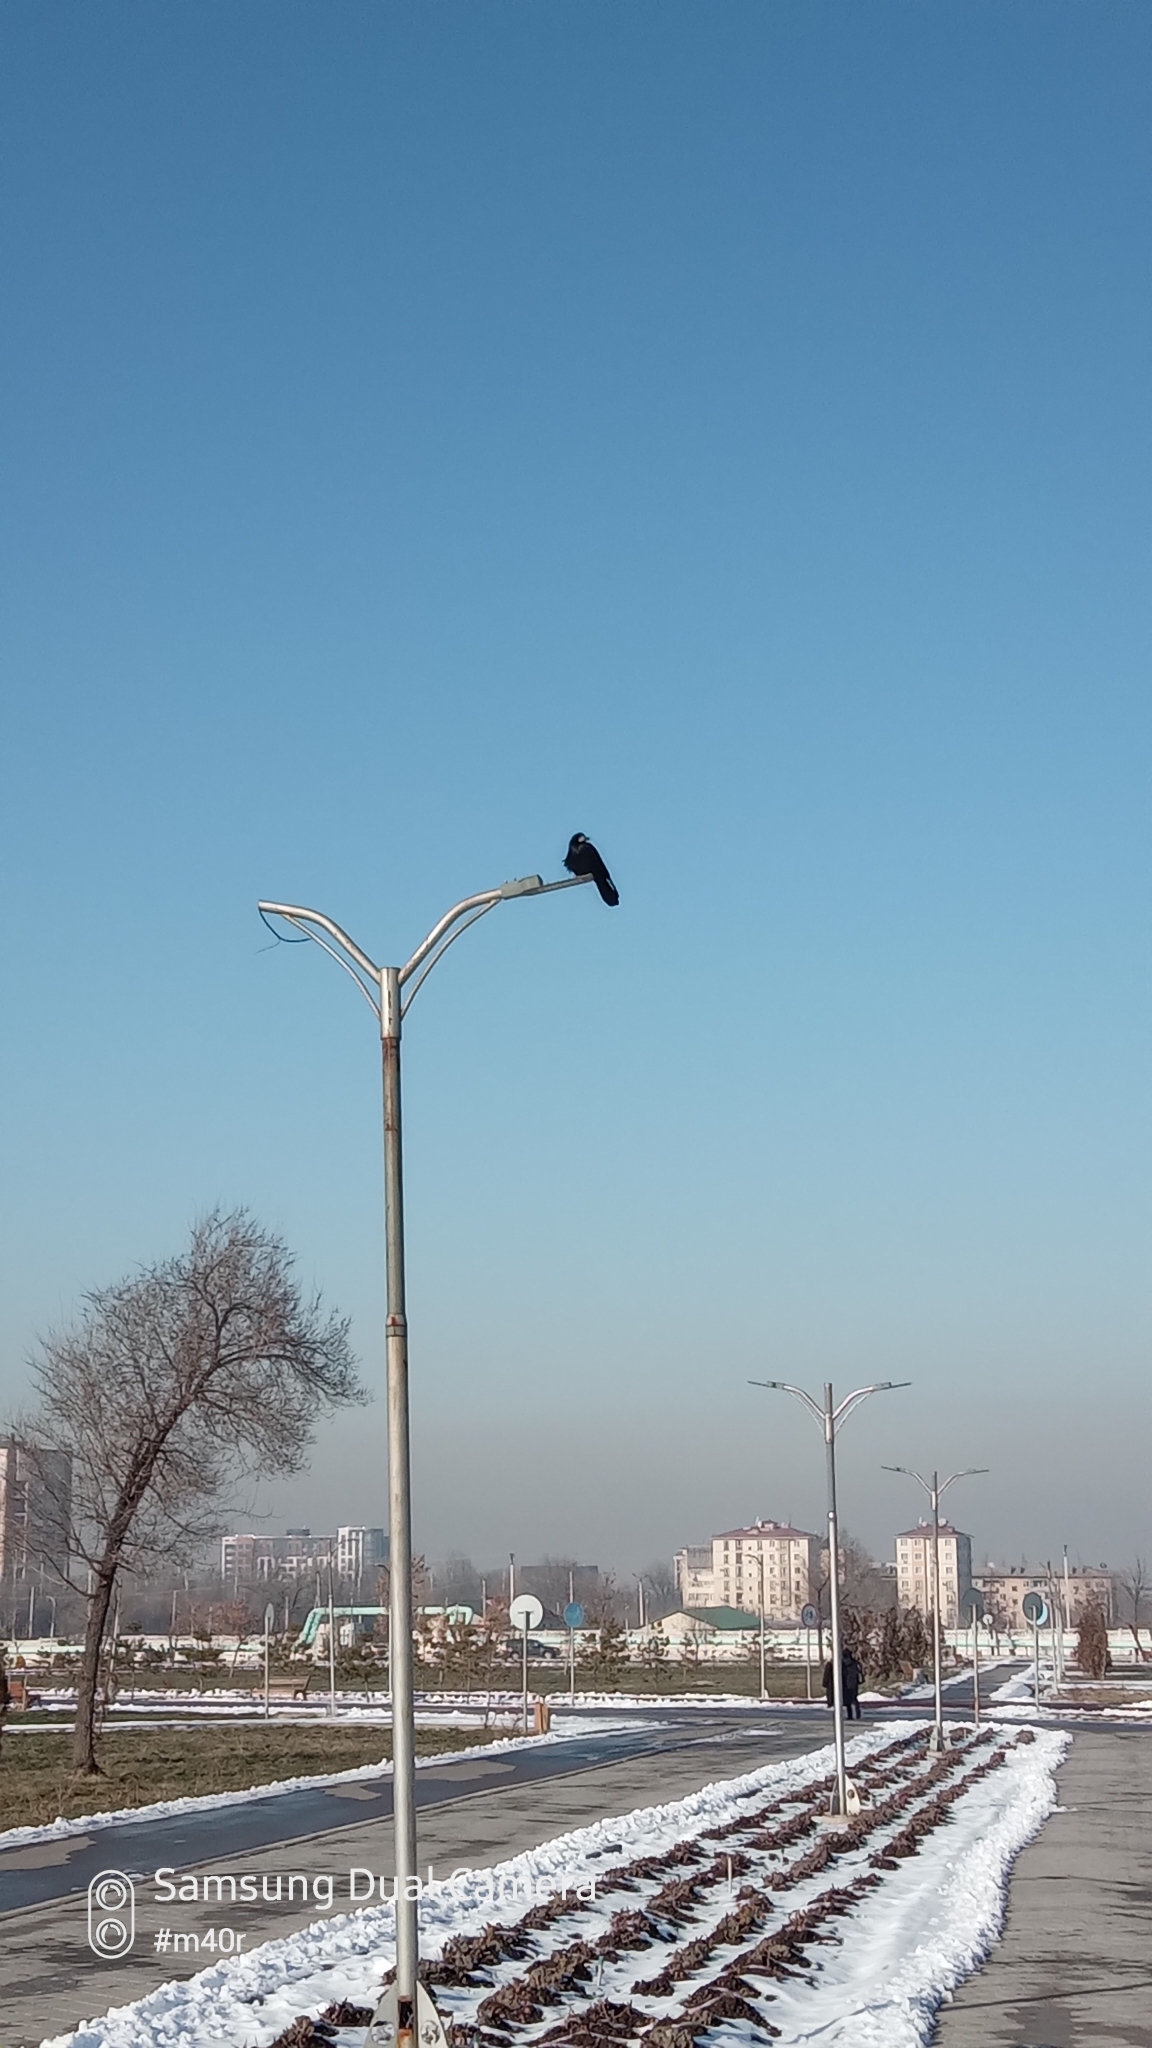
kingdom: Animalia
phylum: Chordata
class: Aves
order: Passeriformes
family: Corvidae
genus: Corvus
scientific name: Corvus frugilegus
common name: Rook
